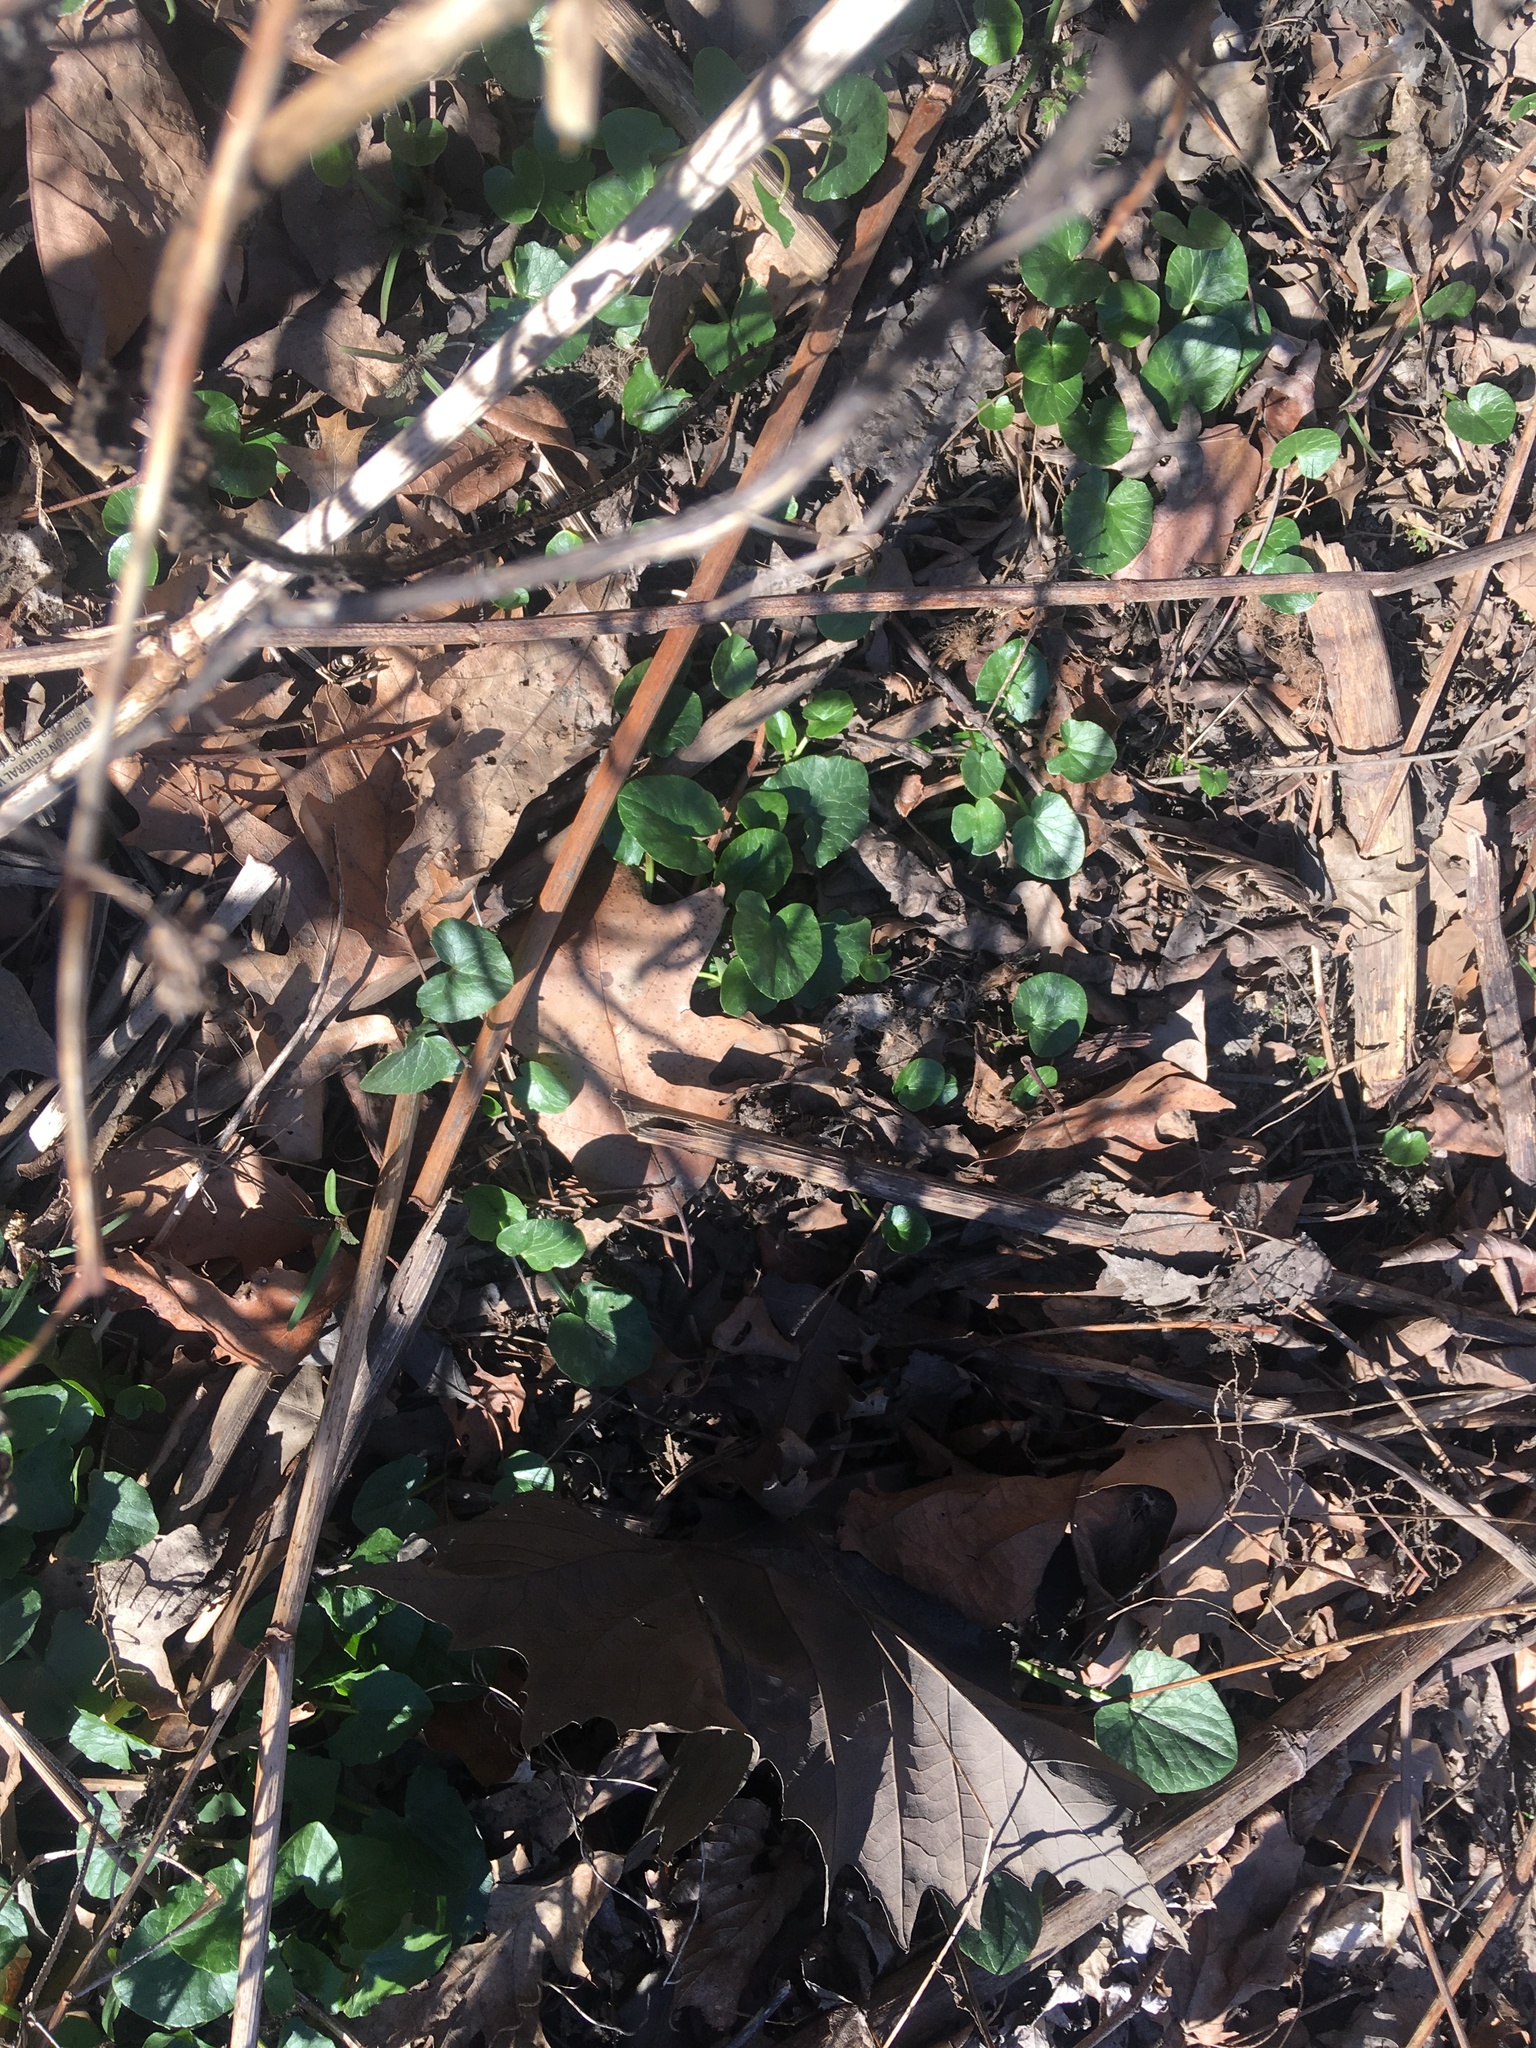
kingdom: Plantae
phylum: Tracheophyta
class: Magnoliopsida
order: Ranunculales
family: Ranunculaceae
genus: Ficaria
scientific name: Ficaria verna
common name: Lesser celandine
